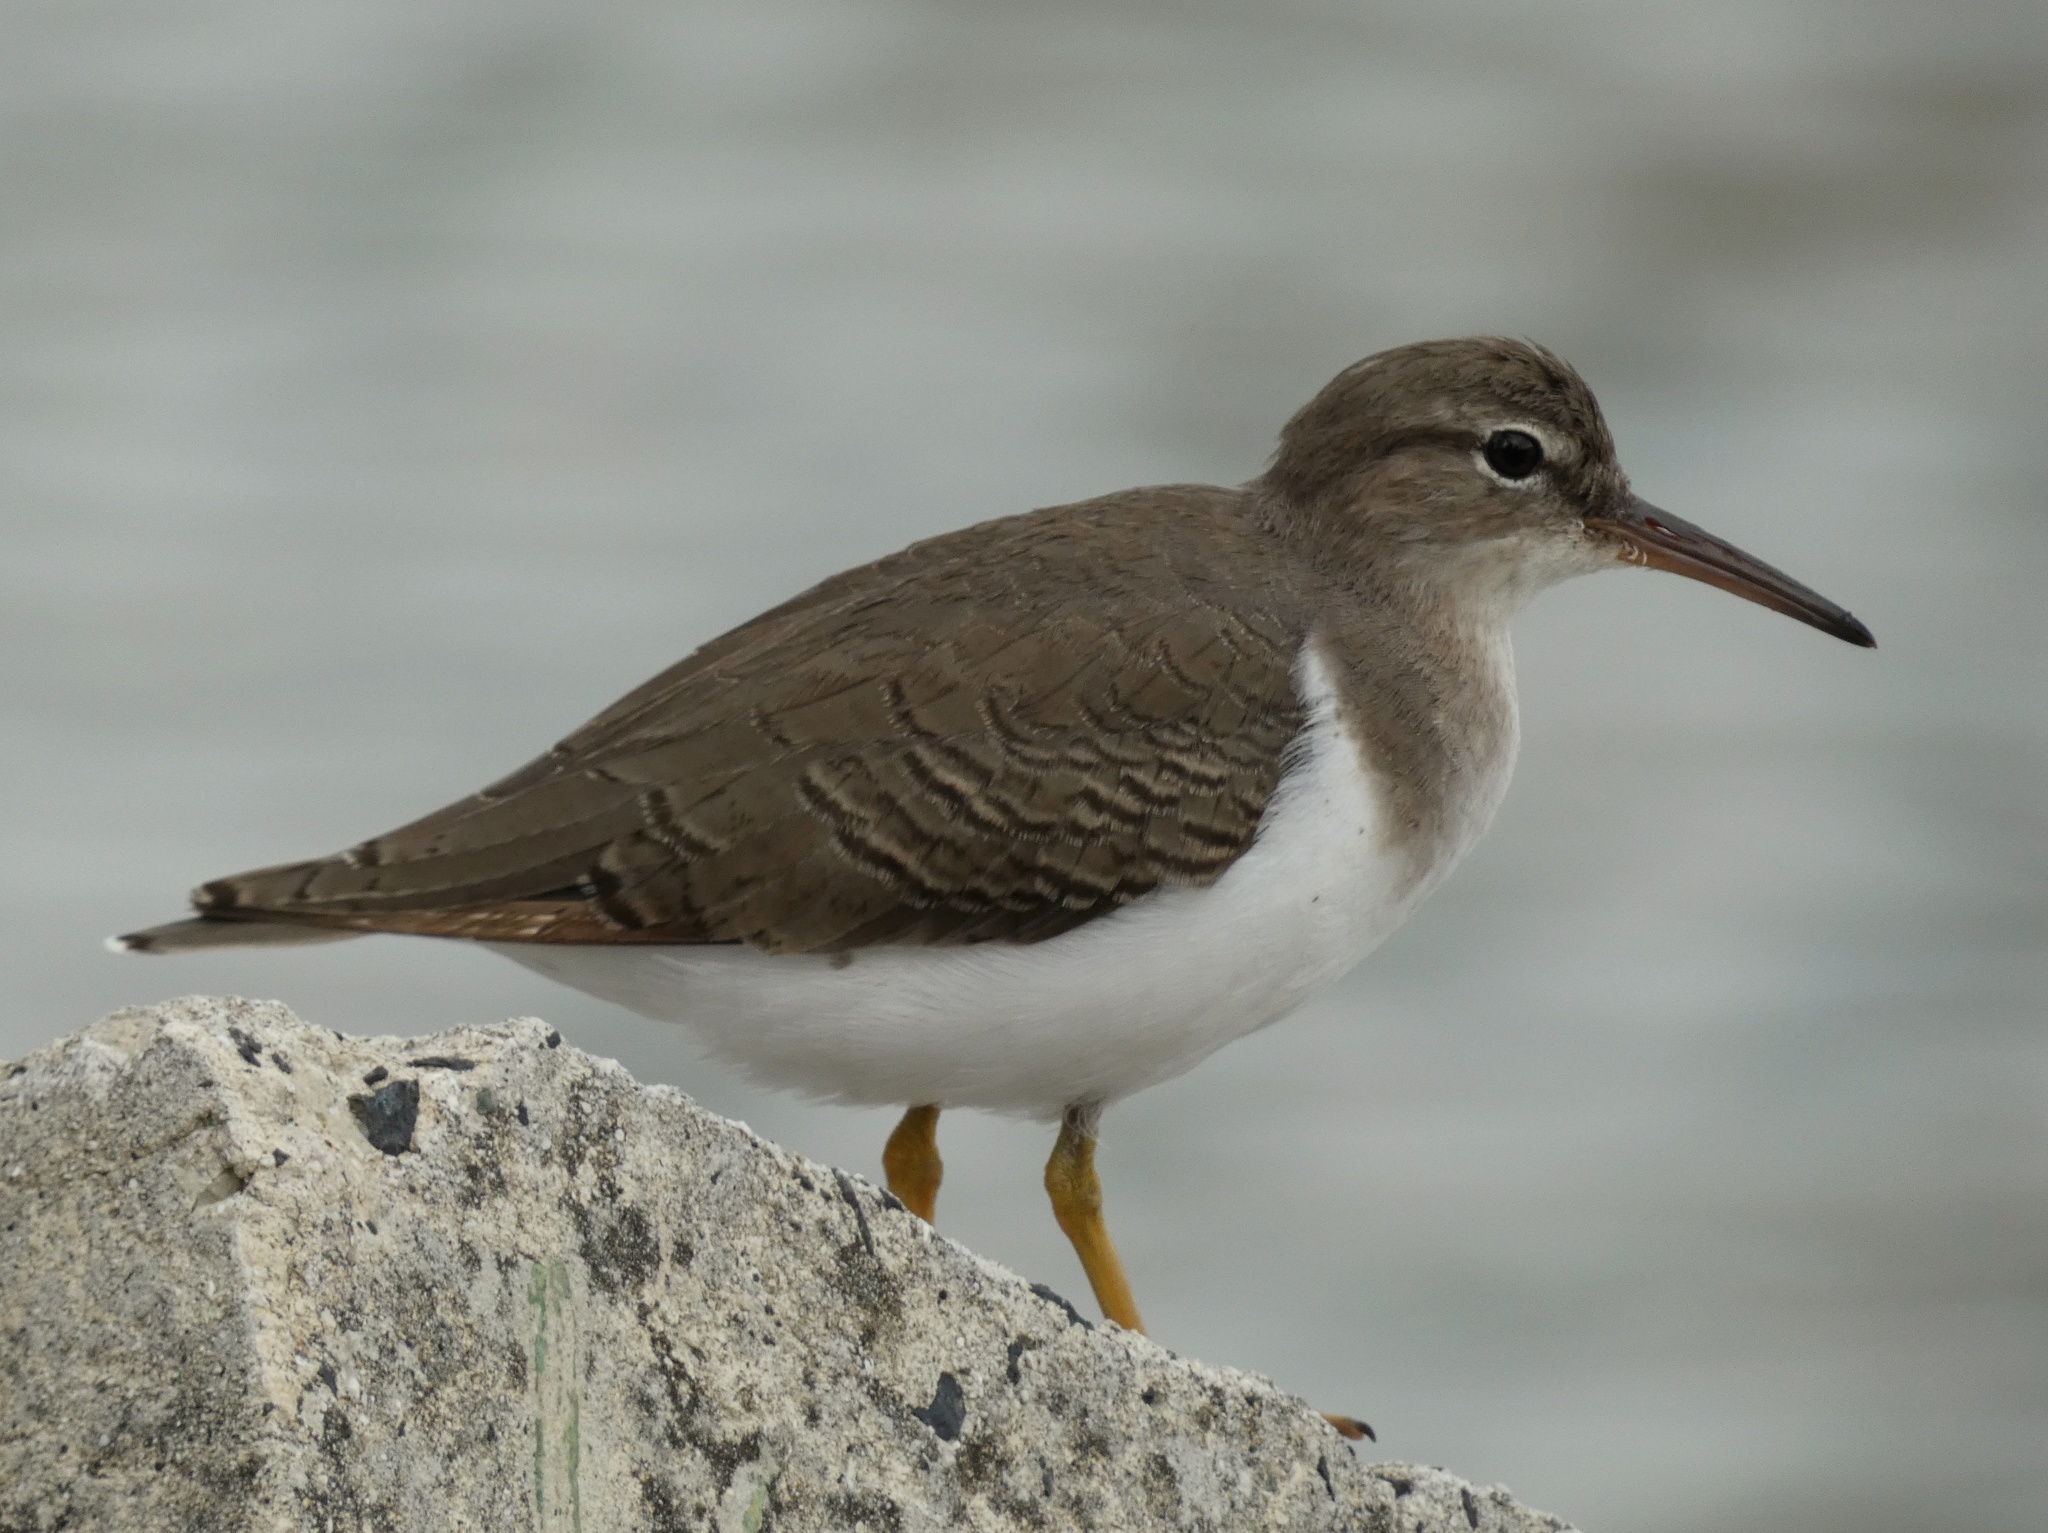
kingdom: Animalia
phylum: Chordata
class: Aves
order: Charadriiformes
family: Scolopacidae
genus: Actitis
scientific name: Actitis macularius
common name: Spotted sandpiper
